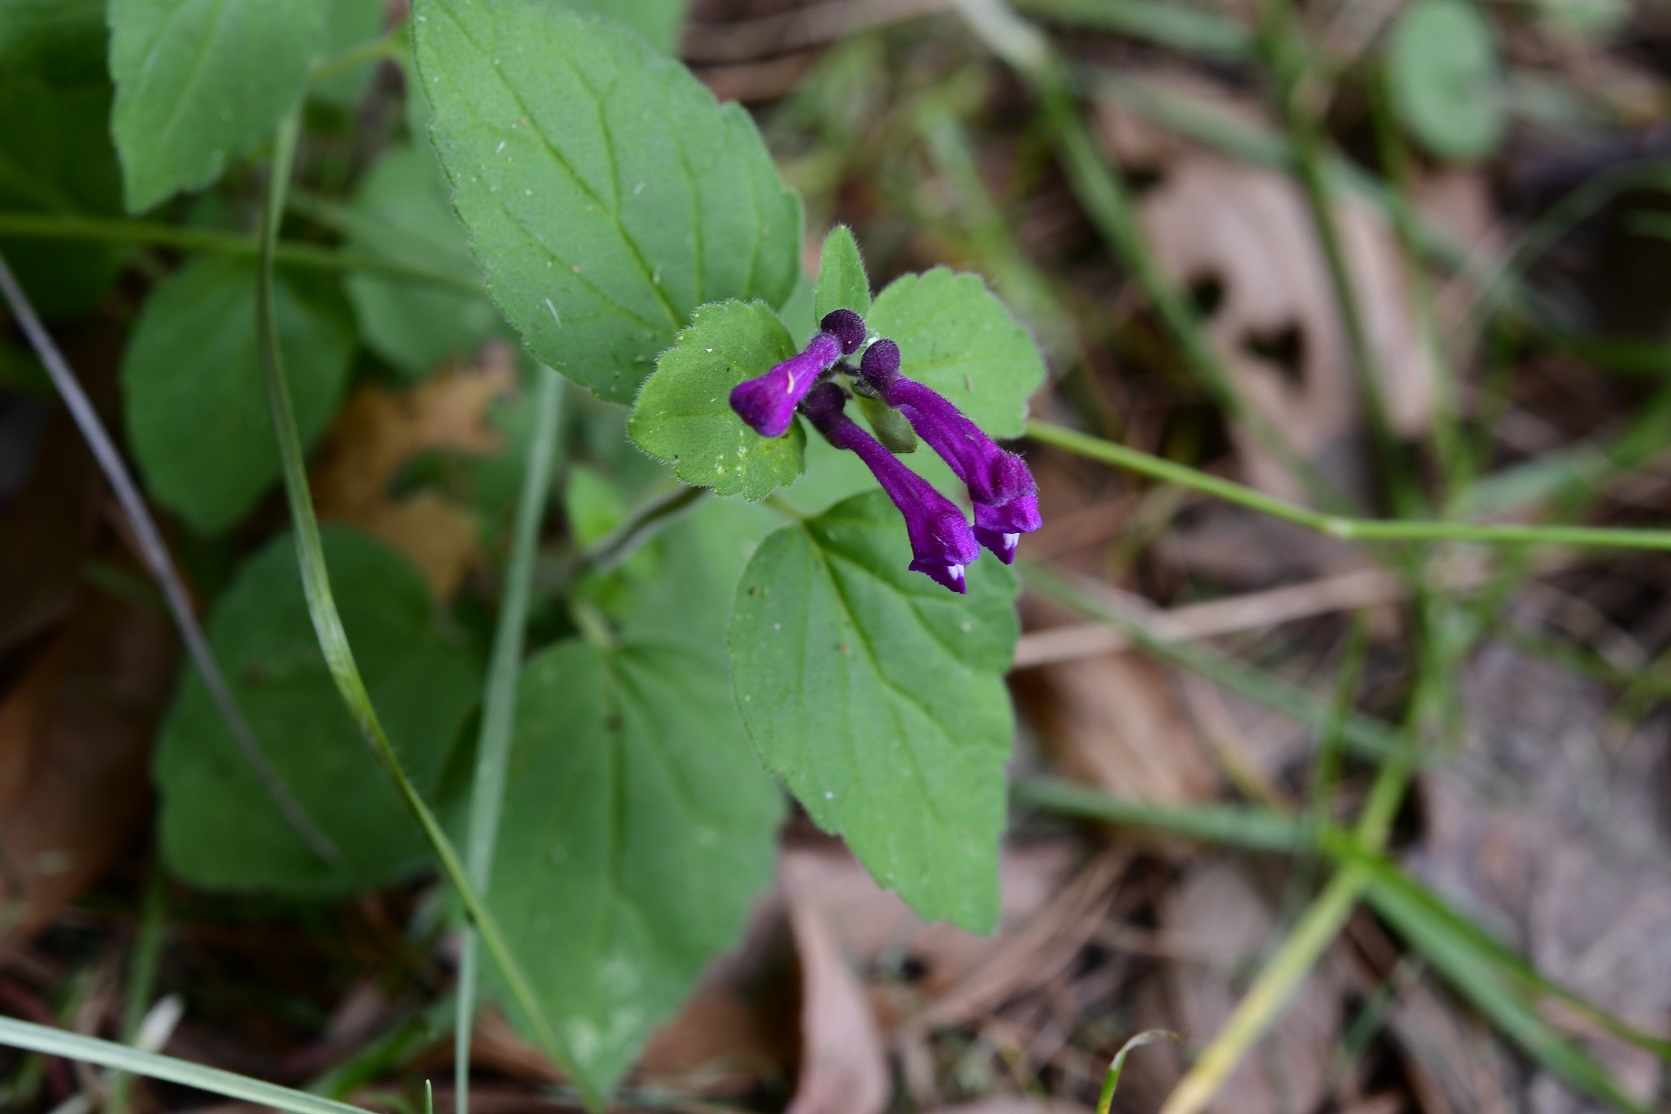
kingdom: Plantae
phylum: Tracheophyta
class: Magnoliopsida
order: Lamiales
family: Lamiaceae
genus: Scutellaria
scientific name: Scutellaria guatemalensis
